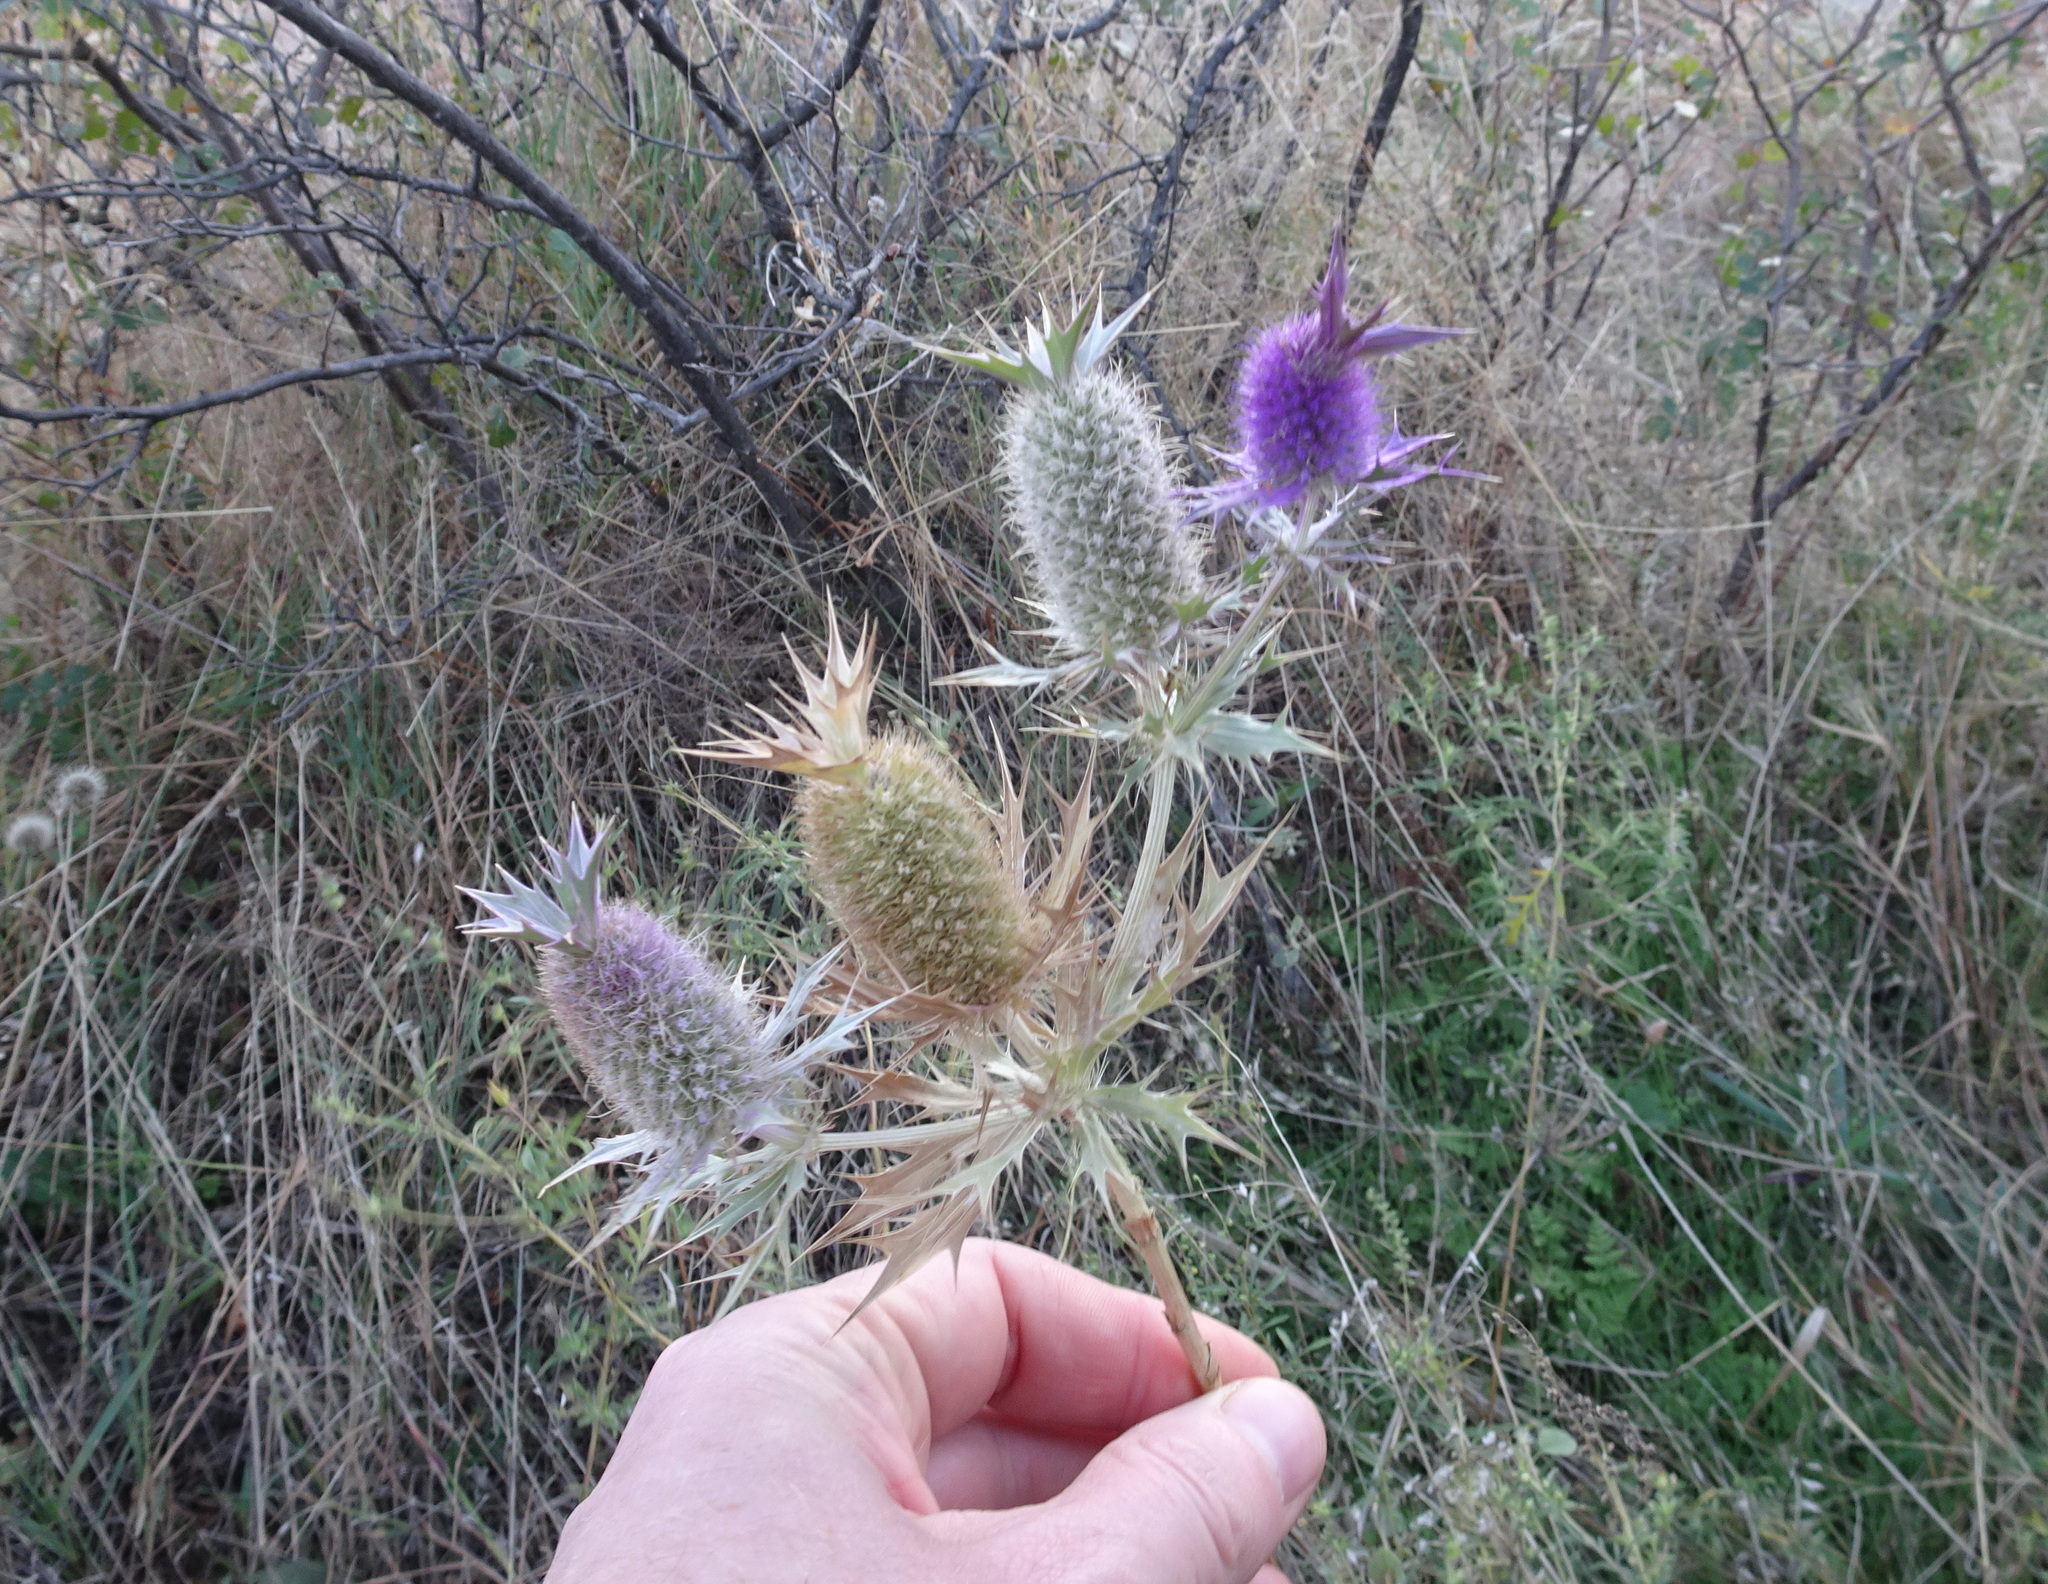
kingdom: Plantae
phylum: Tracheophyta
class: Magnoliopsida
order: Apiales
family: Apiaceae
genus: Eryngium
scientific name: Eryngium leavenworthii
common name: Leavenworth's eryngo
